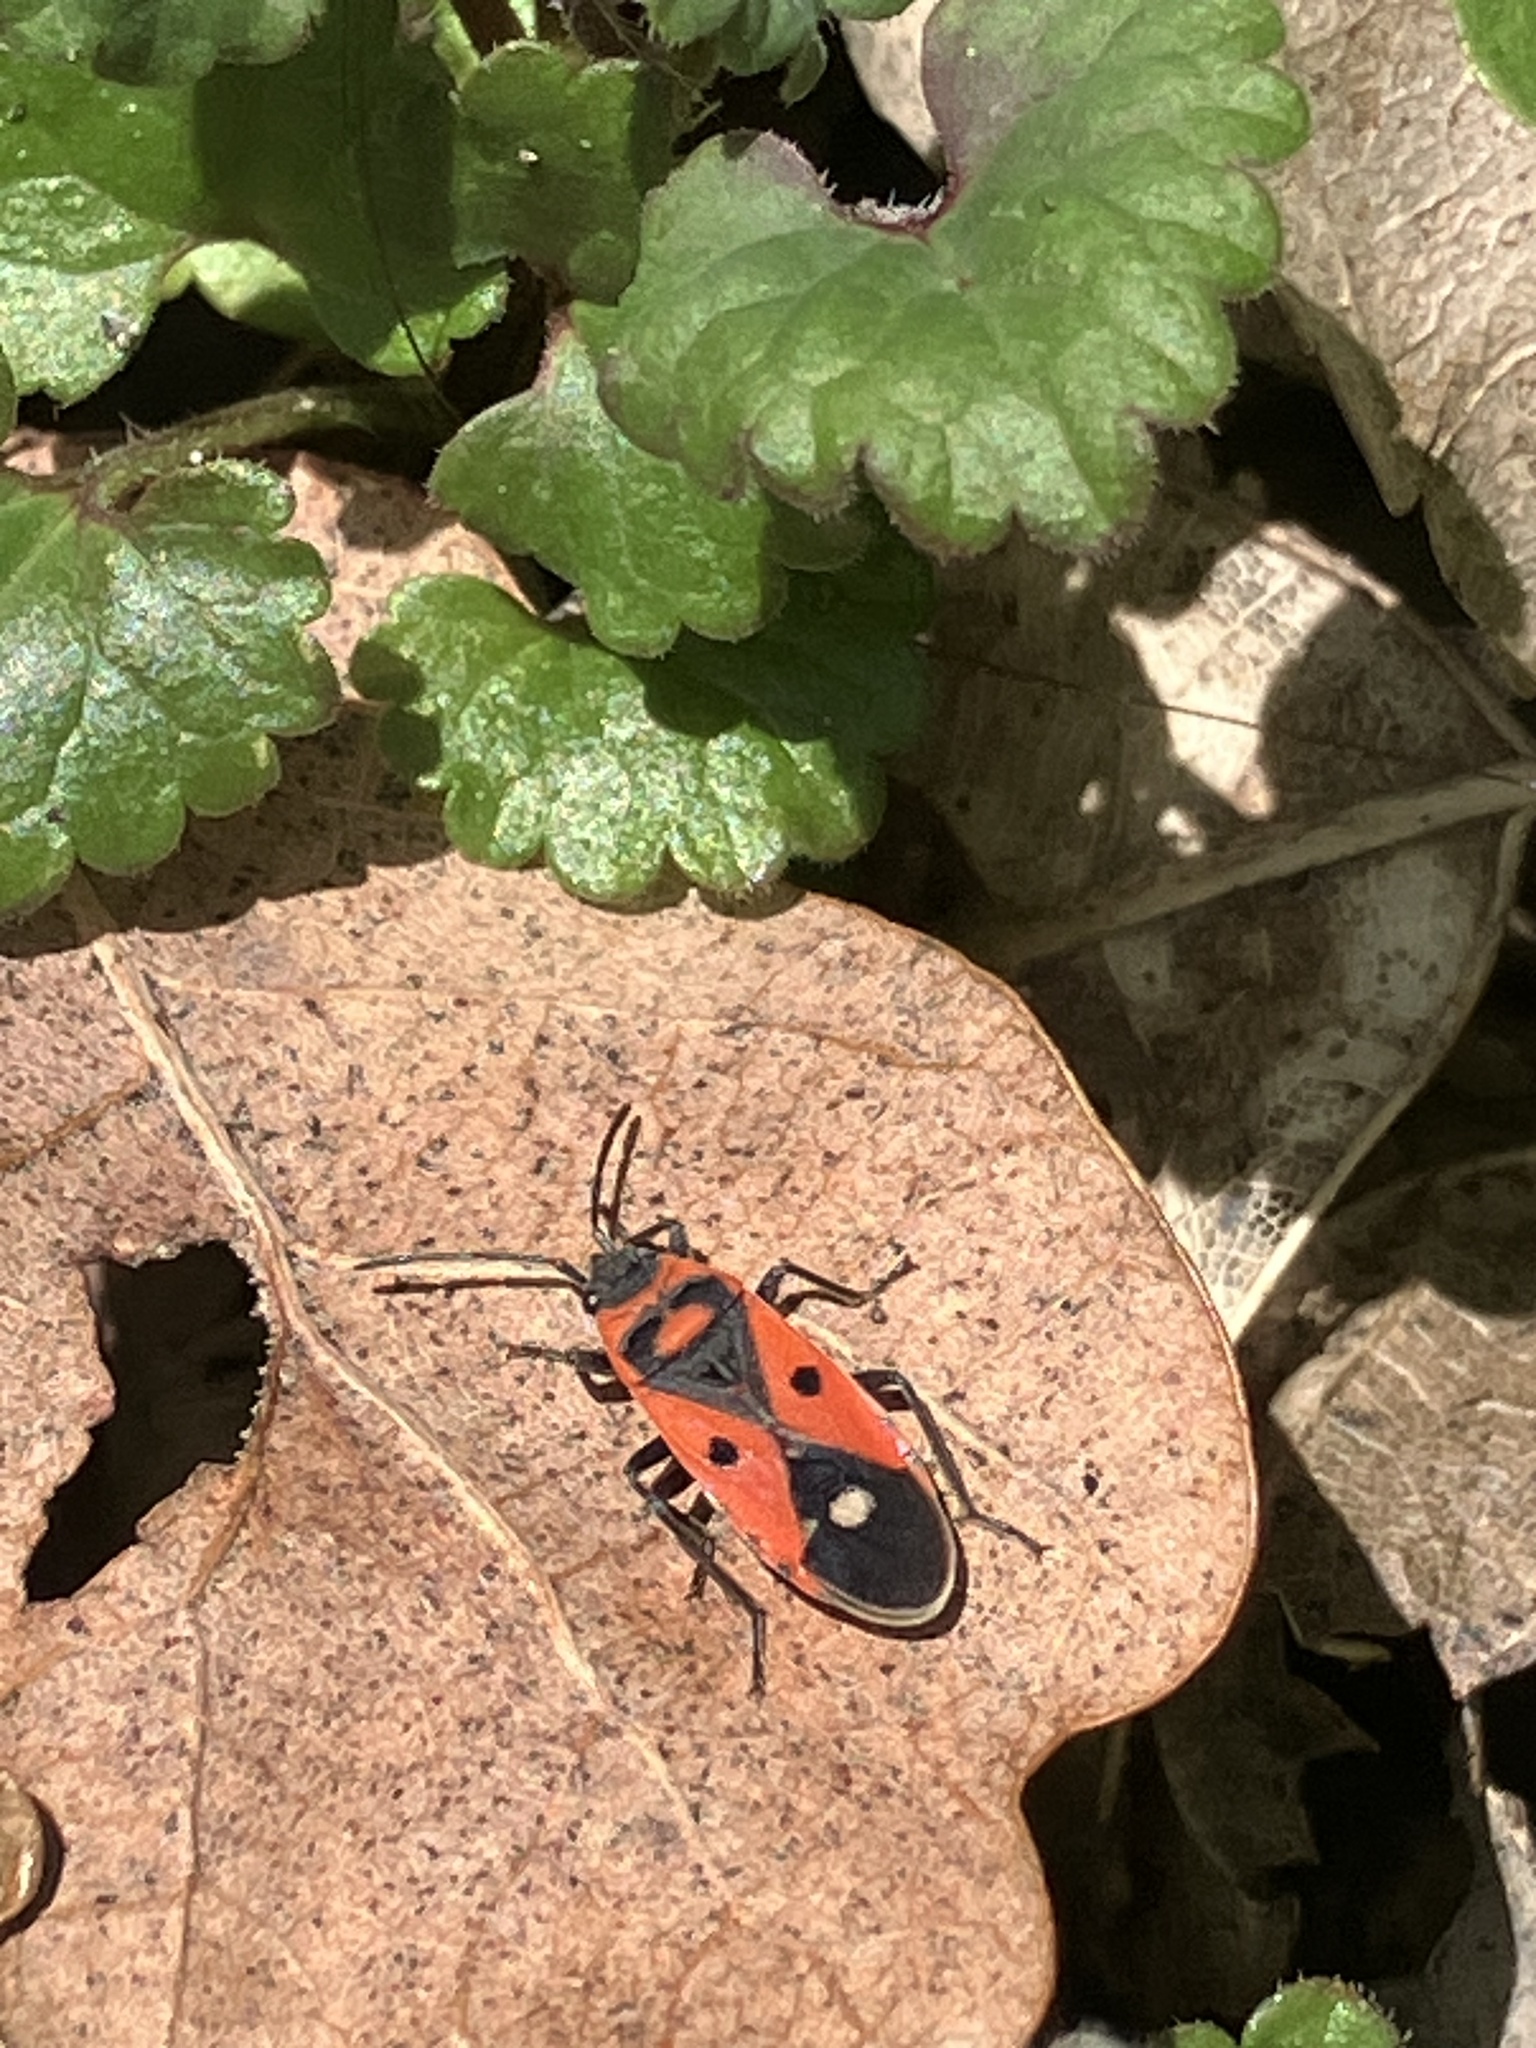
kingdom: Animalia
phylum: Arthropoda
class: Insecta
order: Hemiptera
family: Lygaeidae
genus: Melanocoryphus
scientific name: Melanocoryphus albomaculatus
